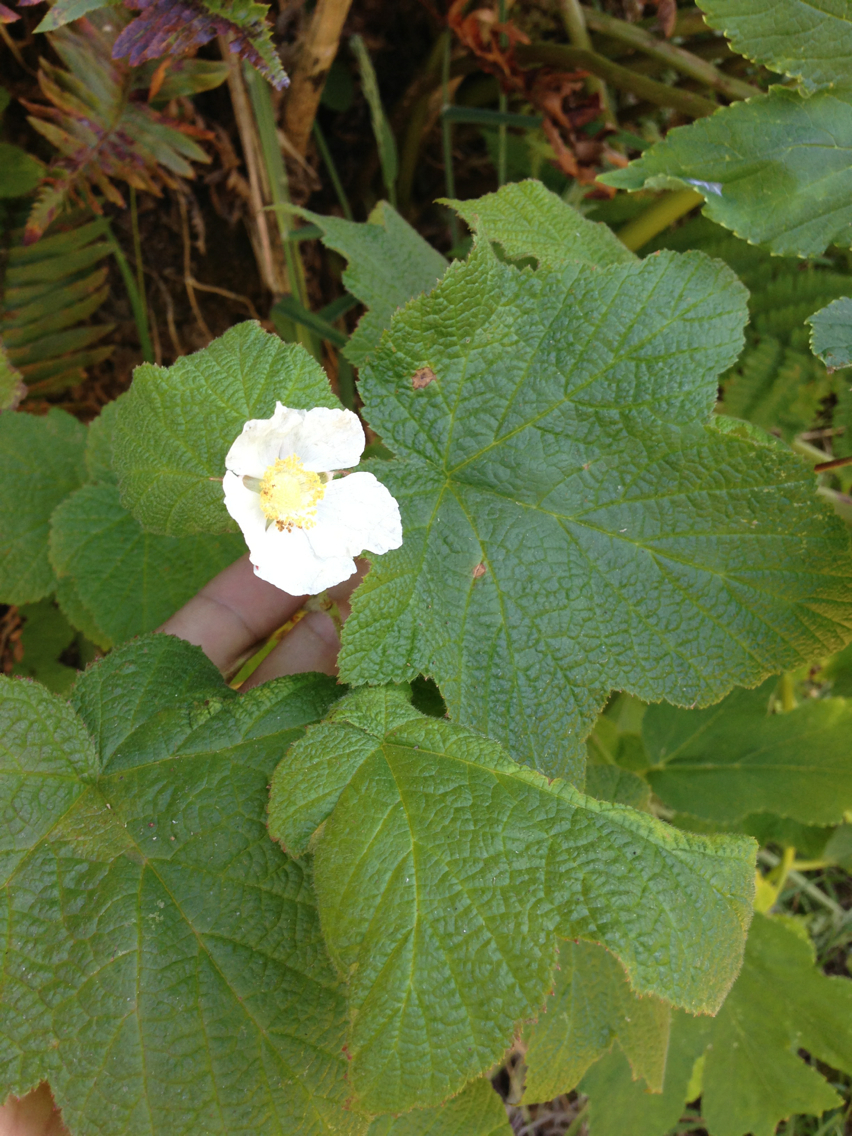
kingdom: Plantae
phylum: Tracheophyta
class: Magnoliopsida
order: Rosales
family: Rosaceae
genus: Rubus
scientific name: Rubus parviflorus
